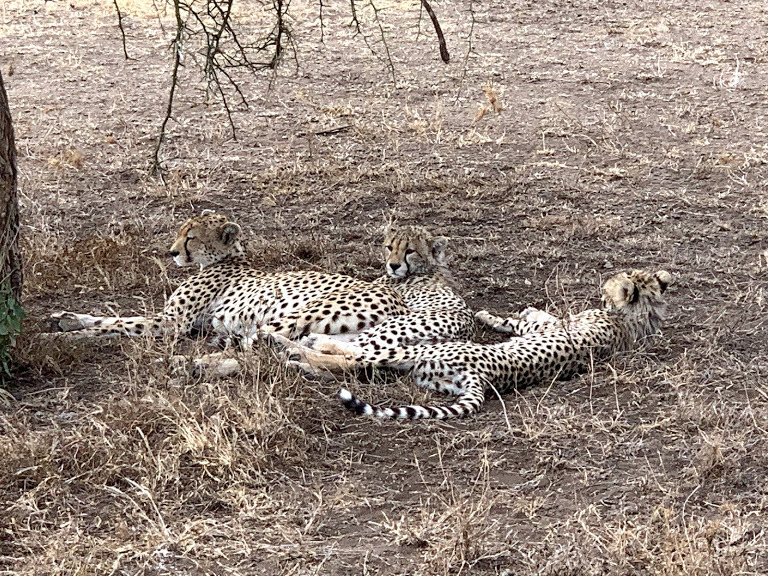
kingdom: Animalia
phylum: Chordata
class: Mammalia
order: Carnivora
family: Felidae
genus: Acinonyx
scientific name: Acinonyx jubatus
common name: Cheetah
